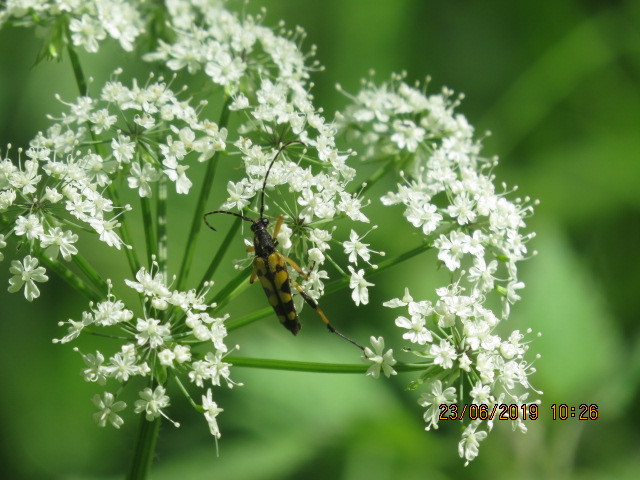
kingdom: Animalia
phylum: Arthropoda
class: Insecta
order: Coleoptera
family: Cerambycidae
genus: Rutpela
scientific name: Rutpela maculata
